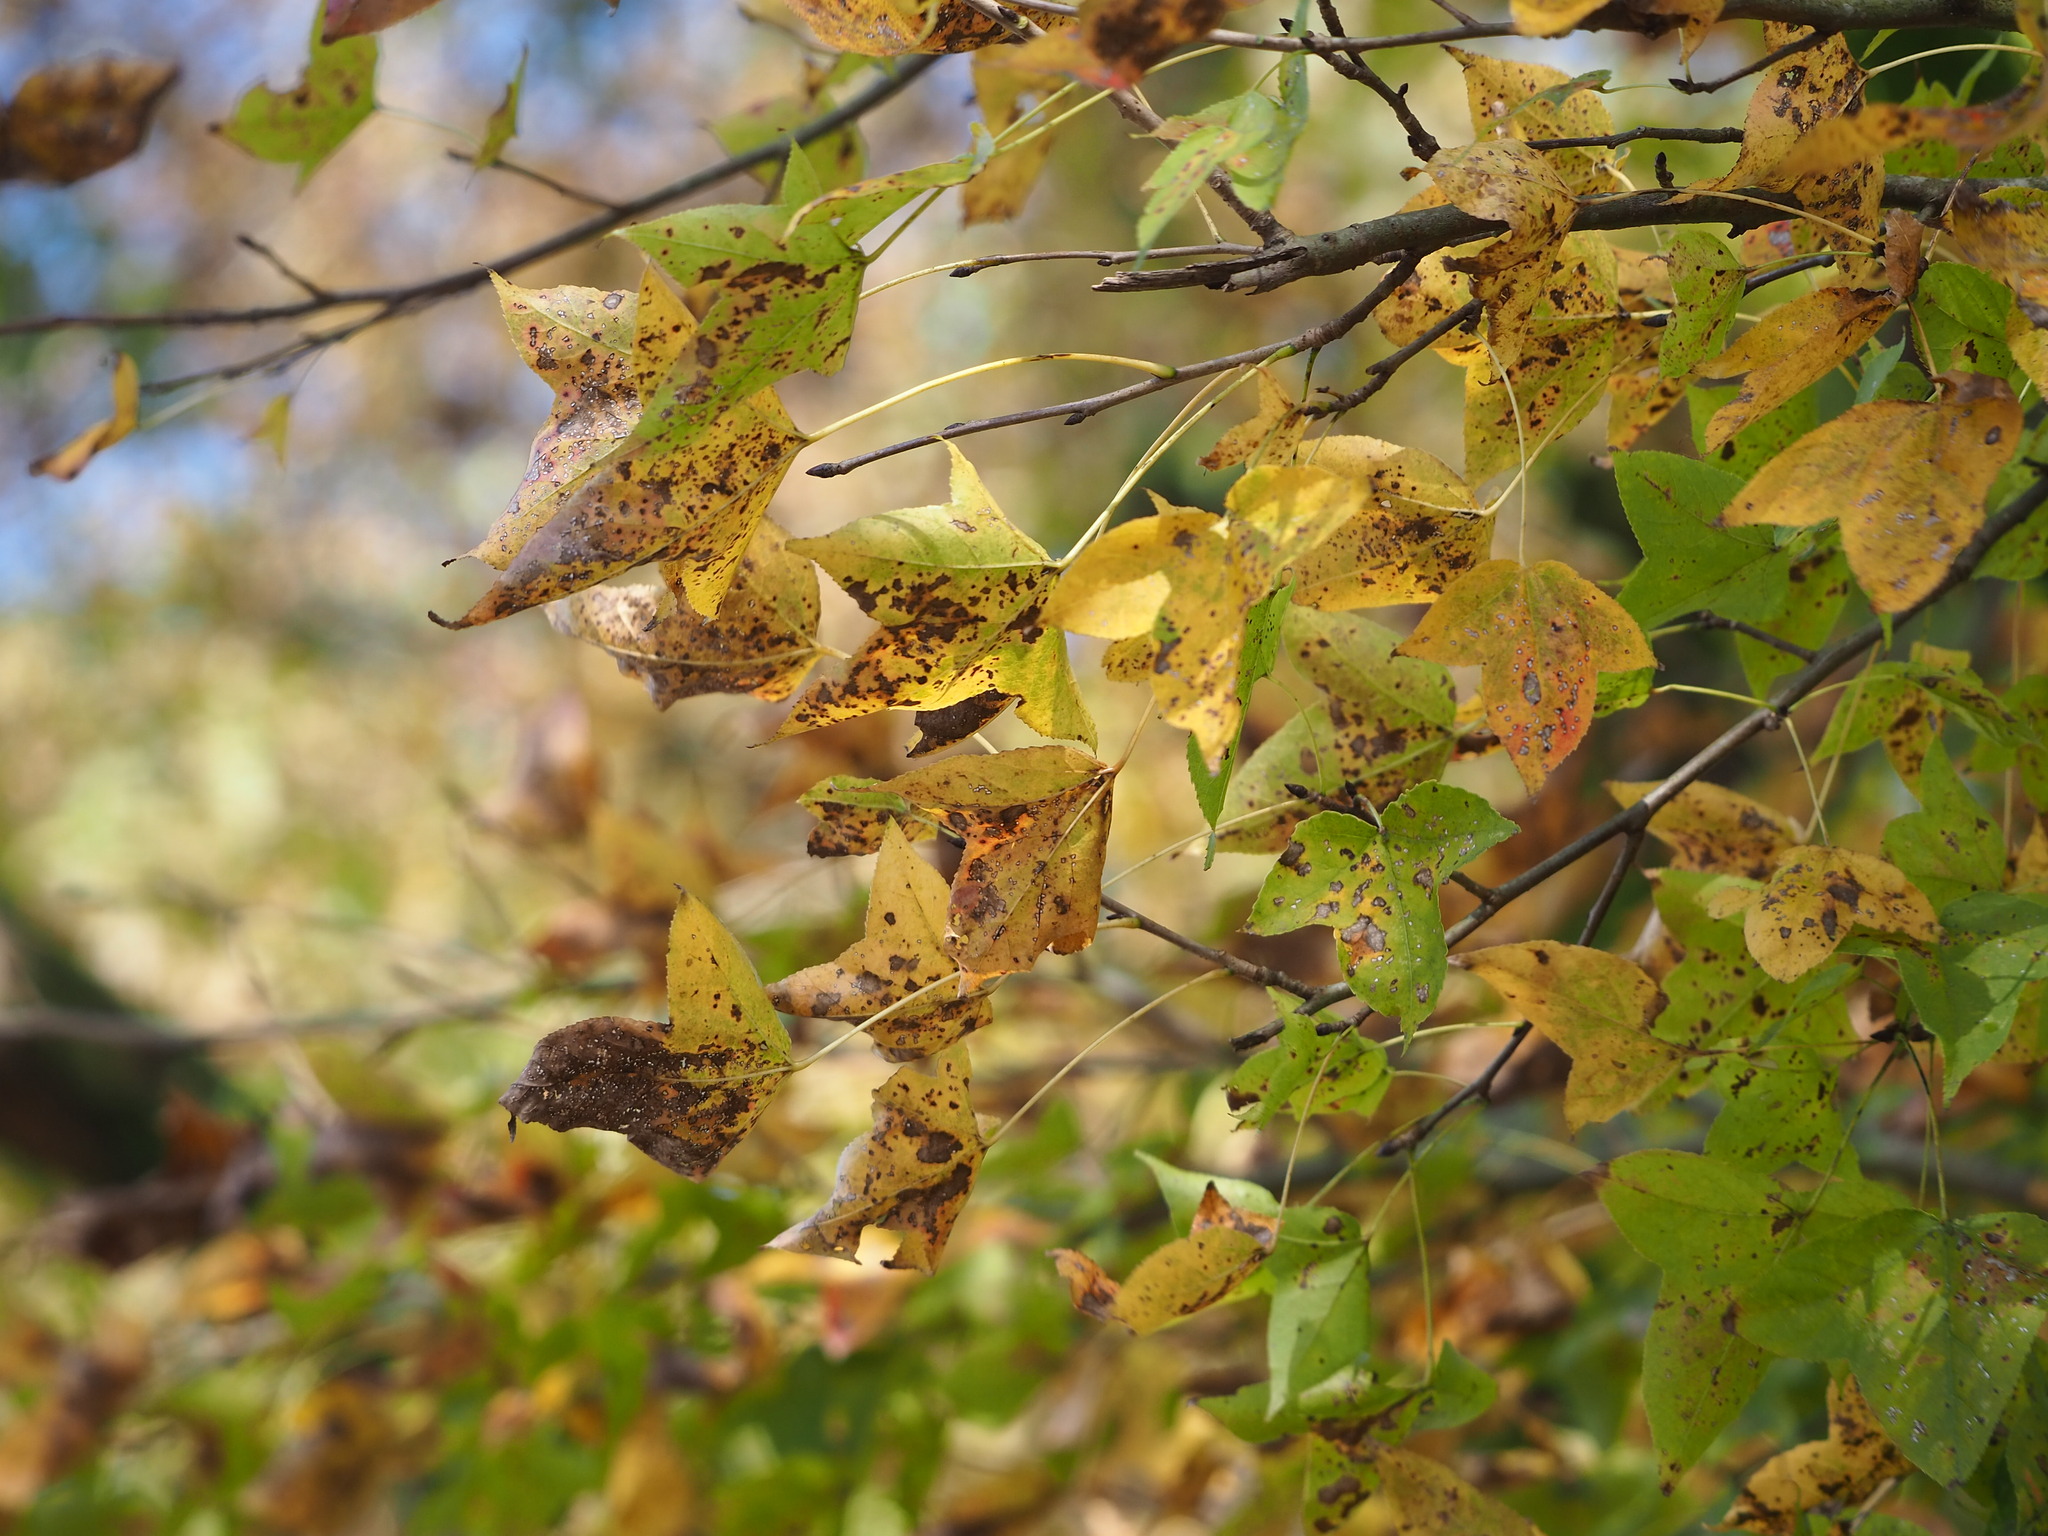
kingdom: Plantae
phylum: Tracheophyta
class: Magnoliopsida
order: Saxifragales
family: Altingiaceae
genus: Liquidambar
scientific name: Liquidambar formosana
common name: Chinese sweet gum
